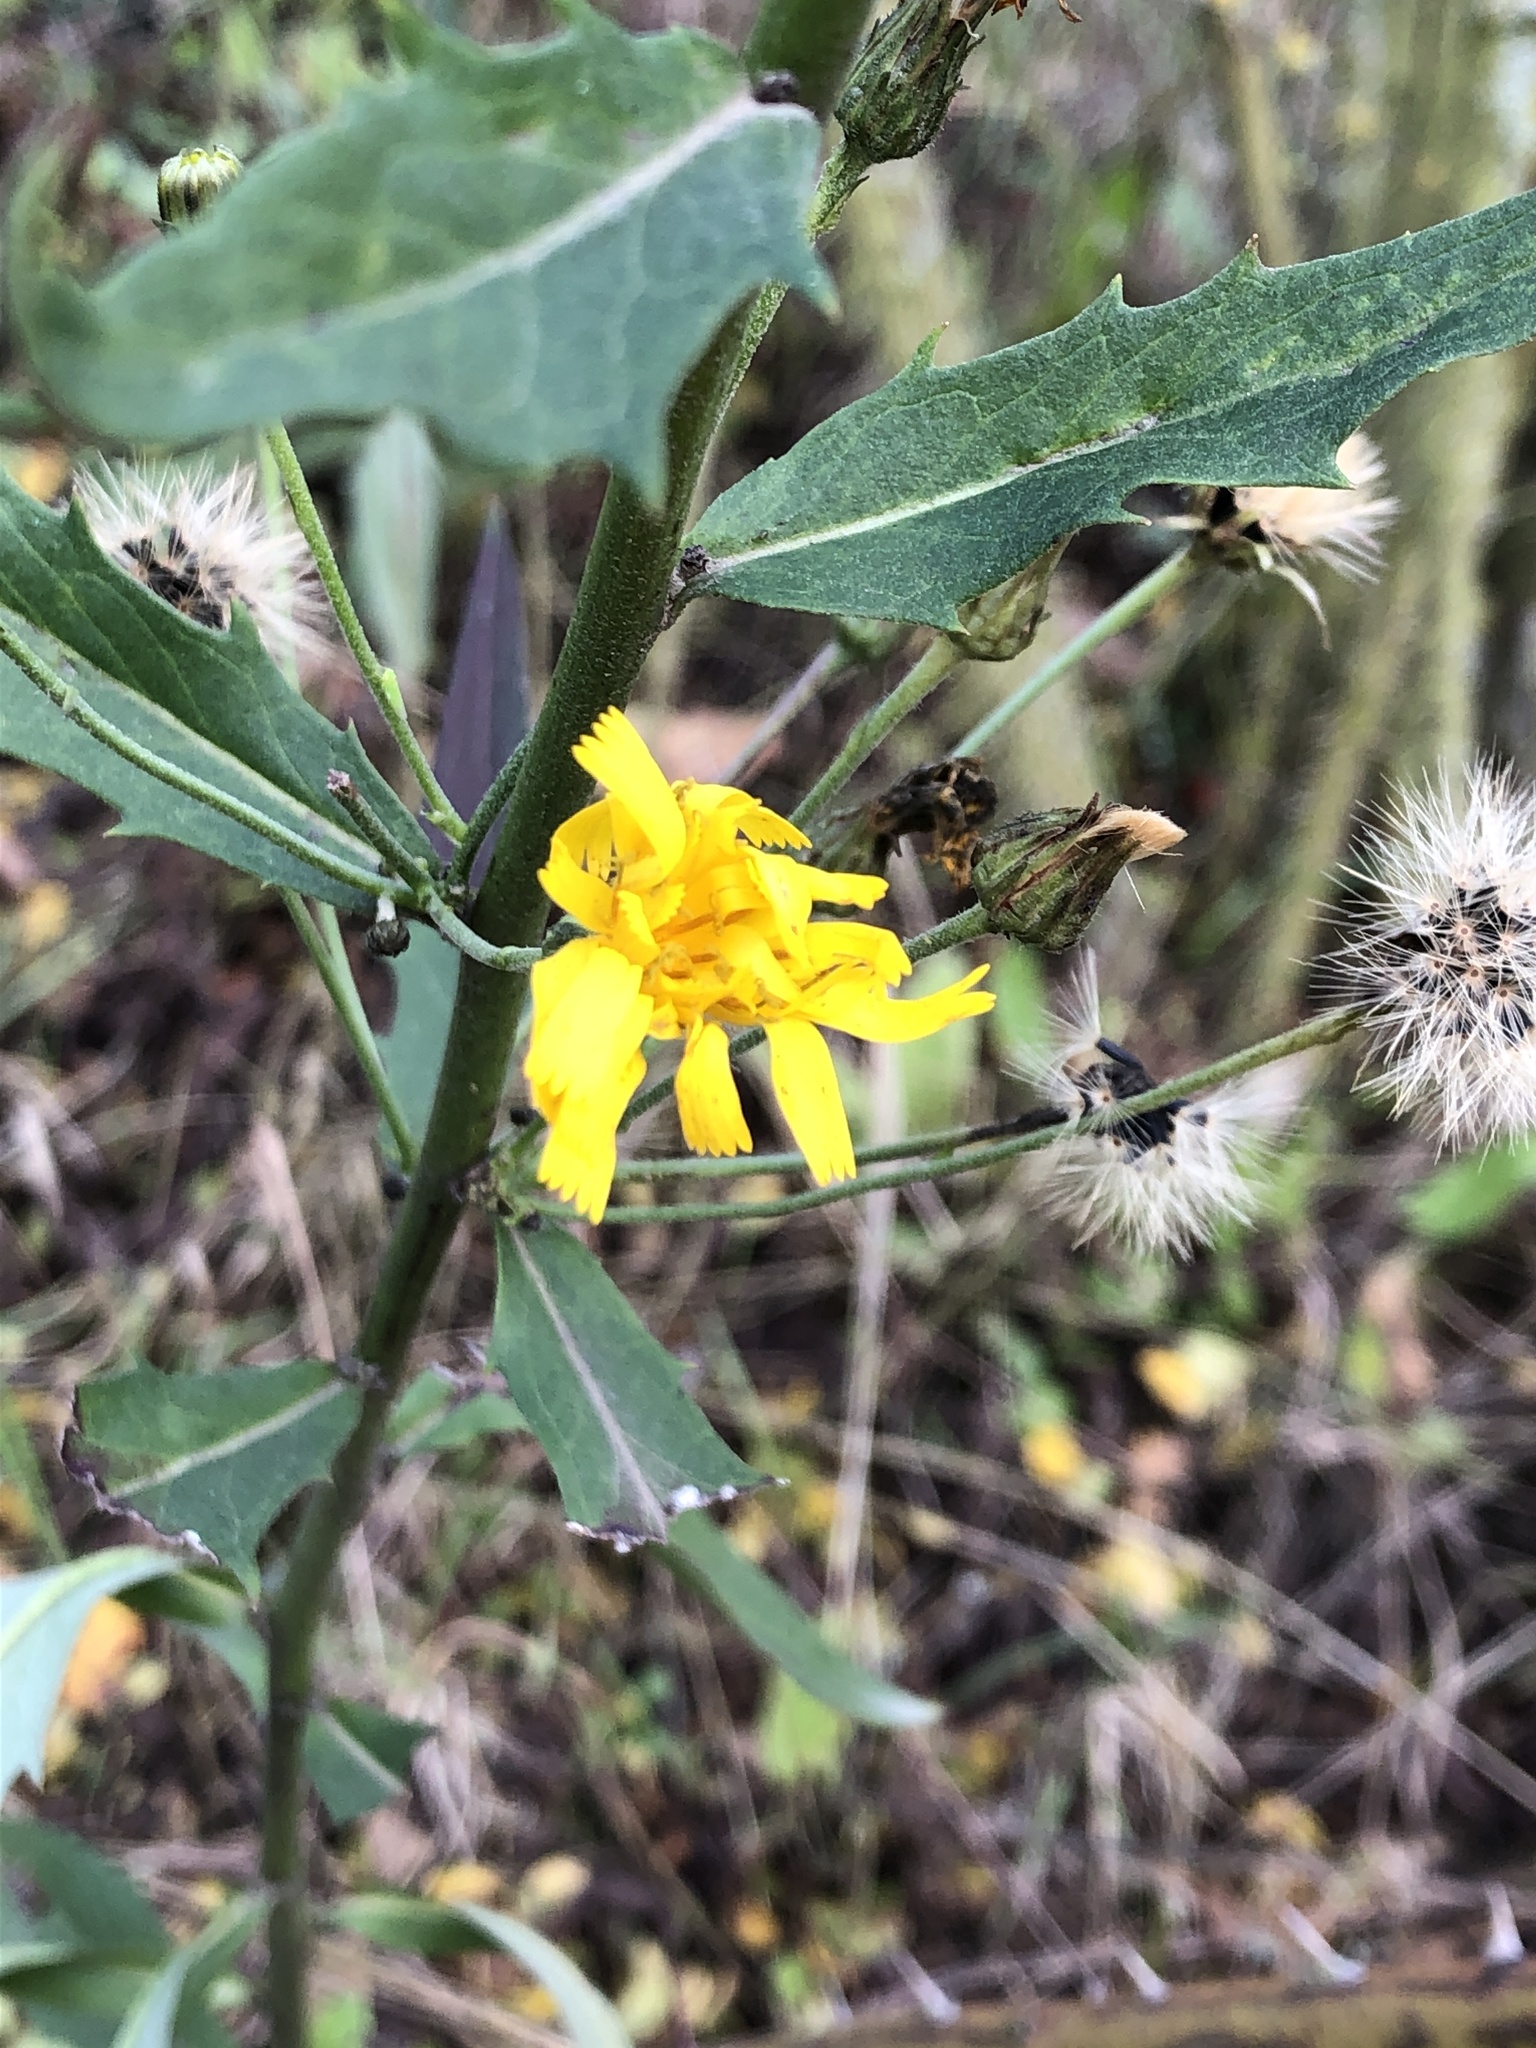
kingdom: Plantae
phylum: Tracheophyta
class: Magnoliopsida
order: Asterales
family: Asteraceae
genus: Hieracium
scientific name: Hieracium laevigatum
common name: Smooth hawkweed
